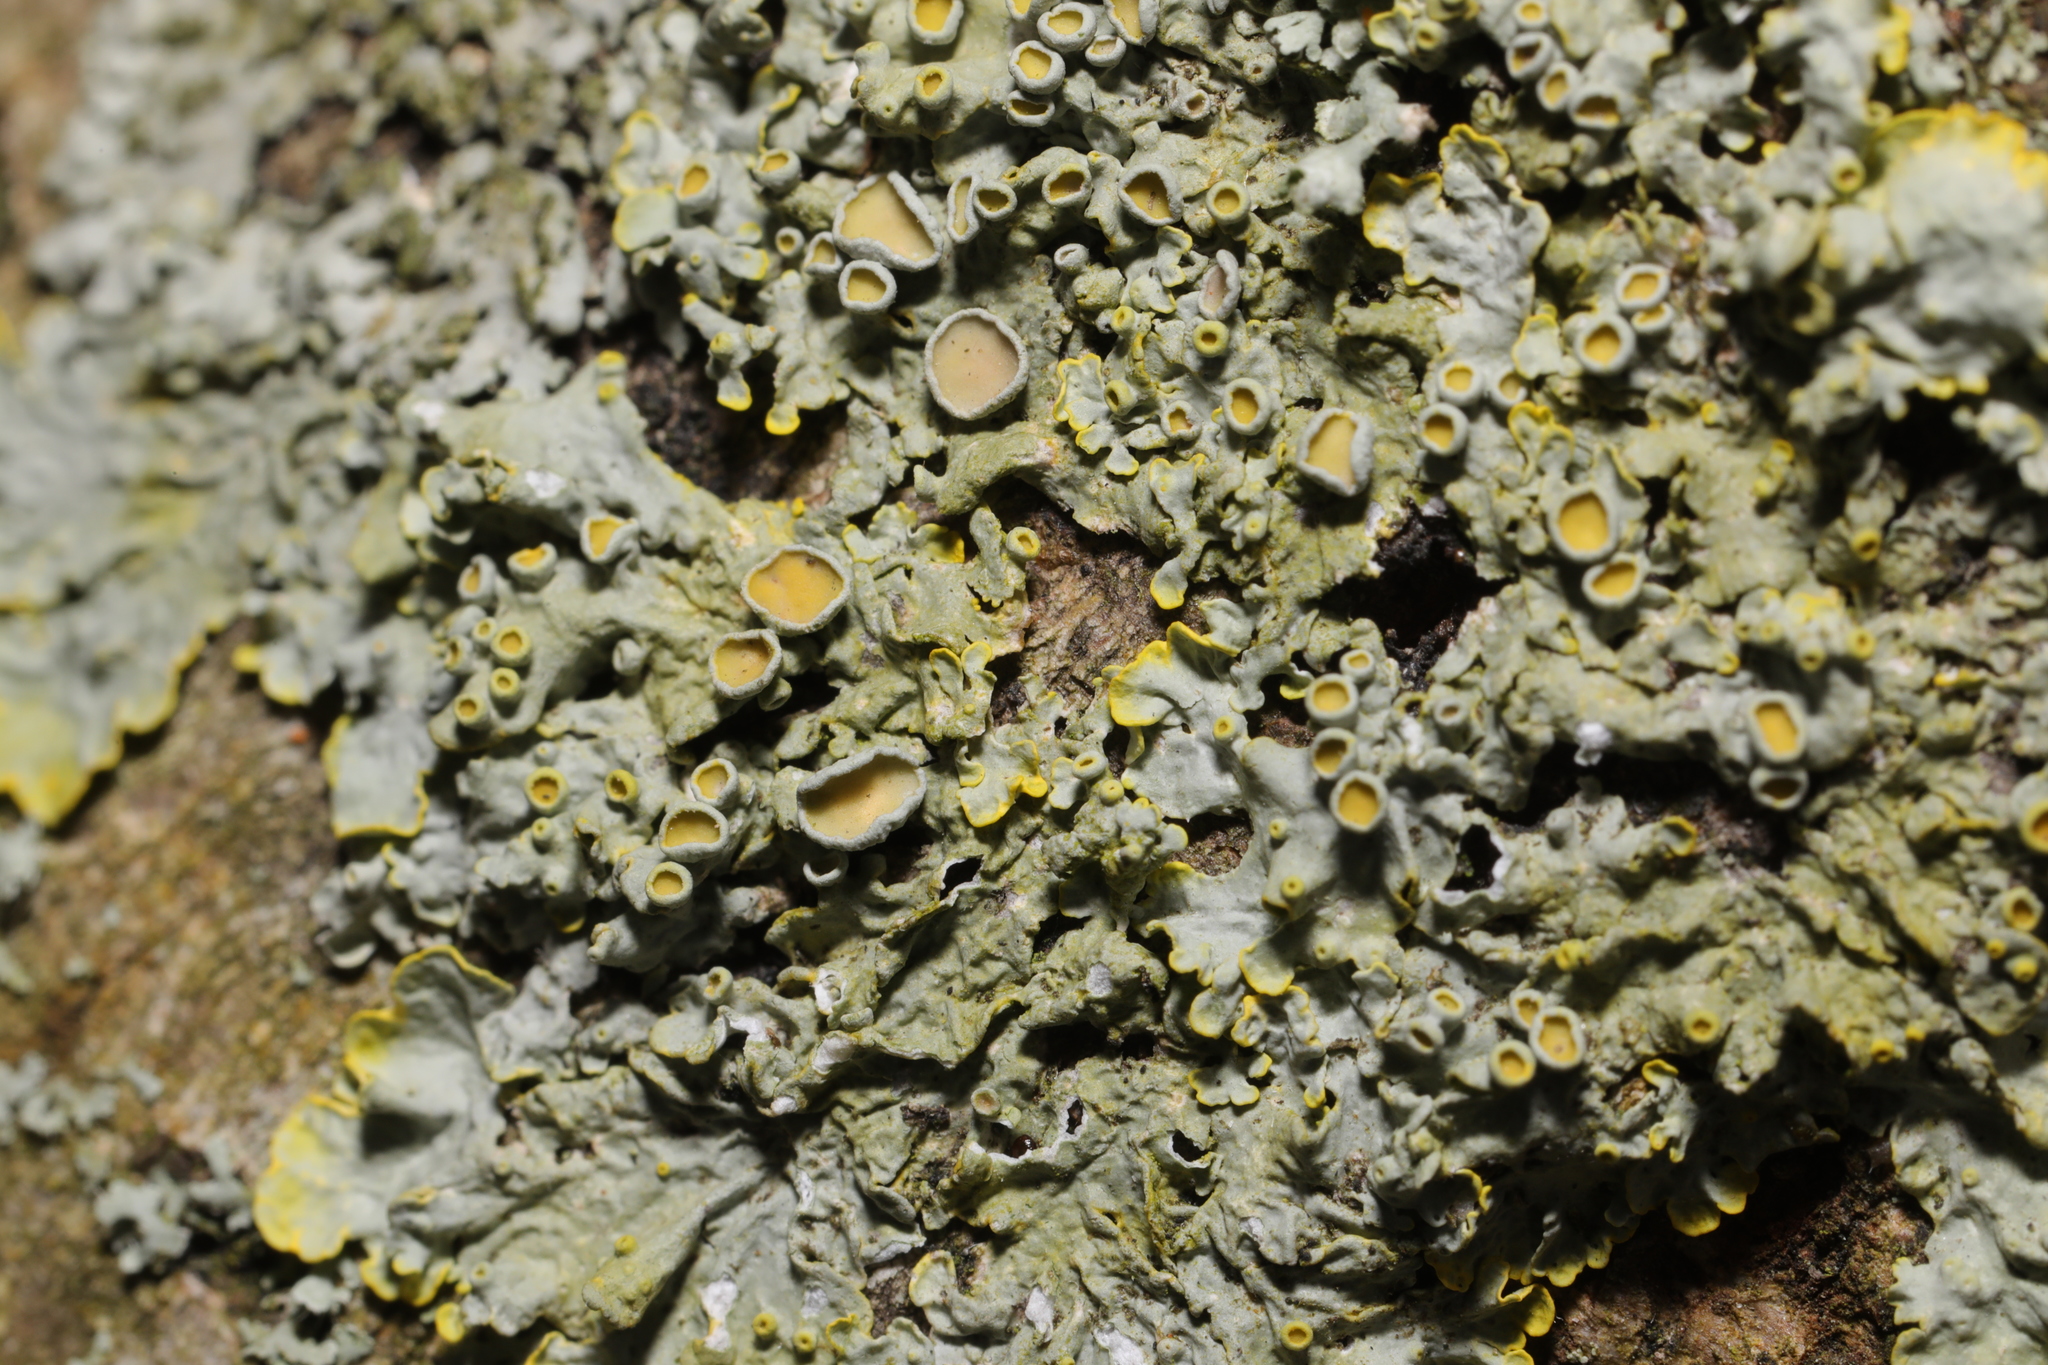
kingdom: Fungi
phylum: Ascomycota
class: Lecanoromycetes
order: Teloschistales
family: Teloschistaceae
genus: Xanthoria
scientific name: Xanthoria parietina
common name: Common orange lichen
